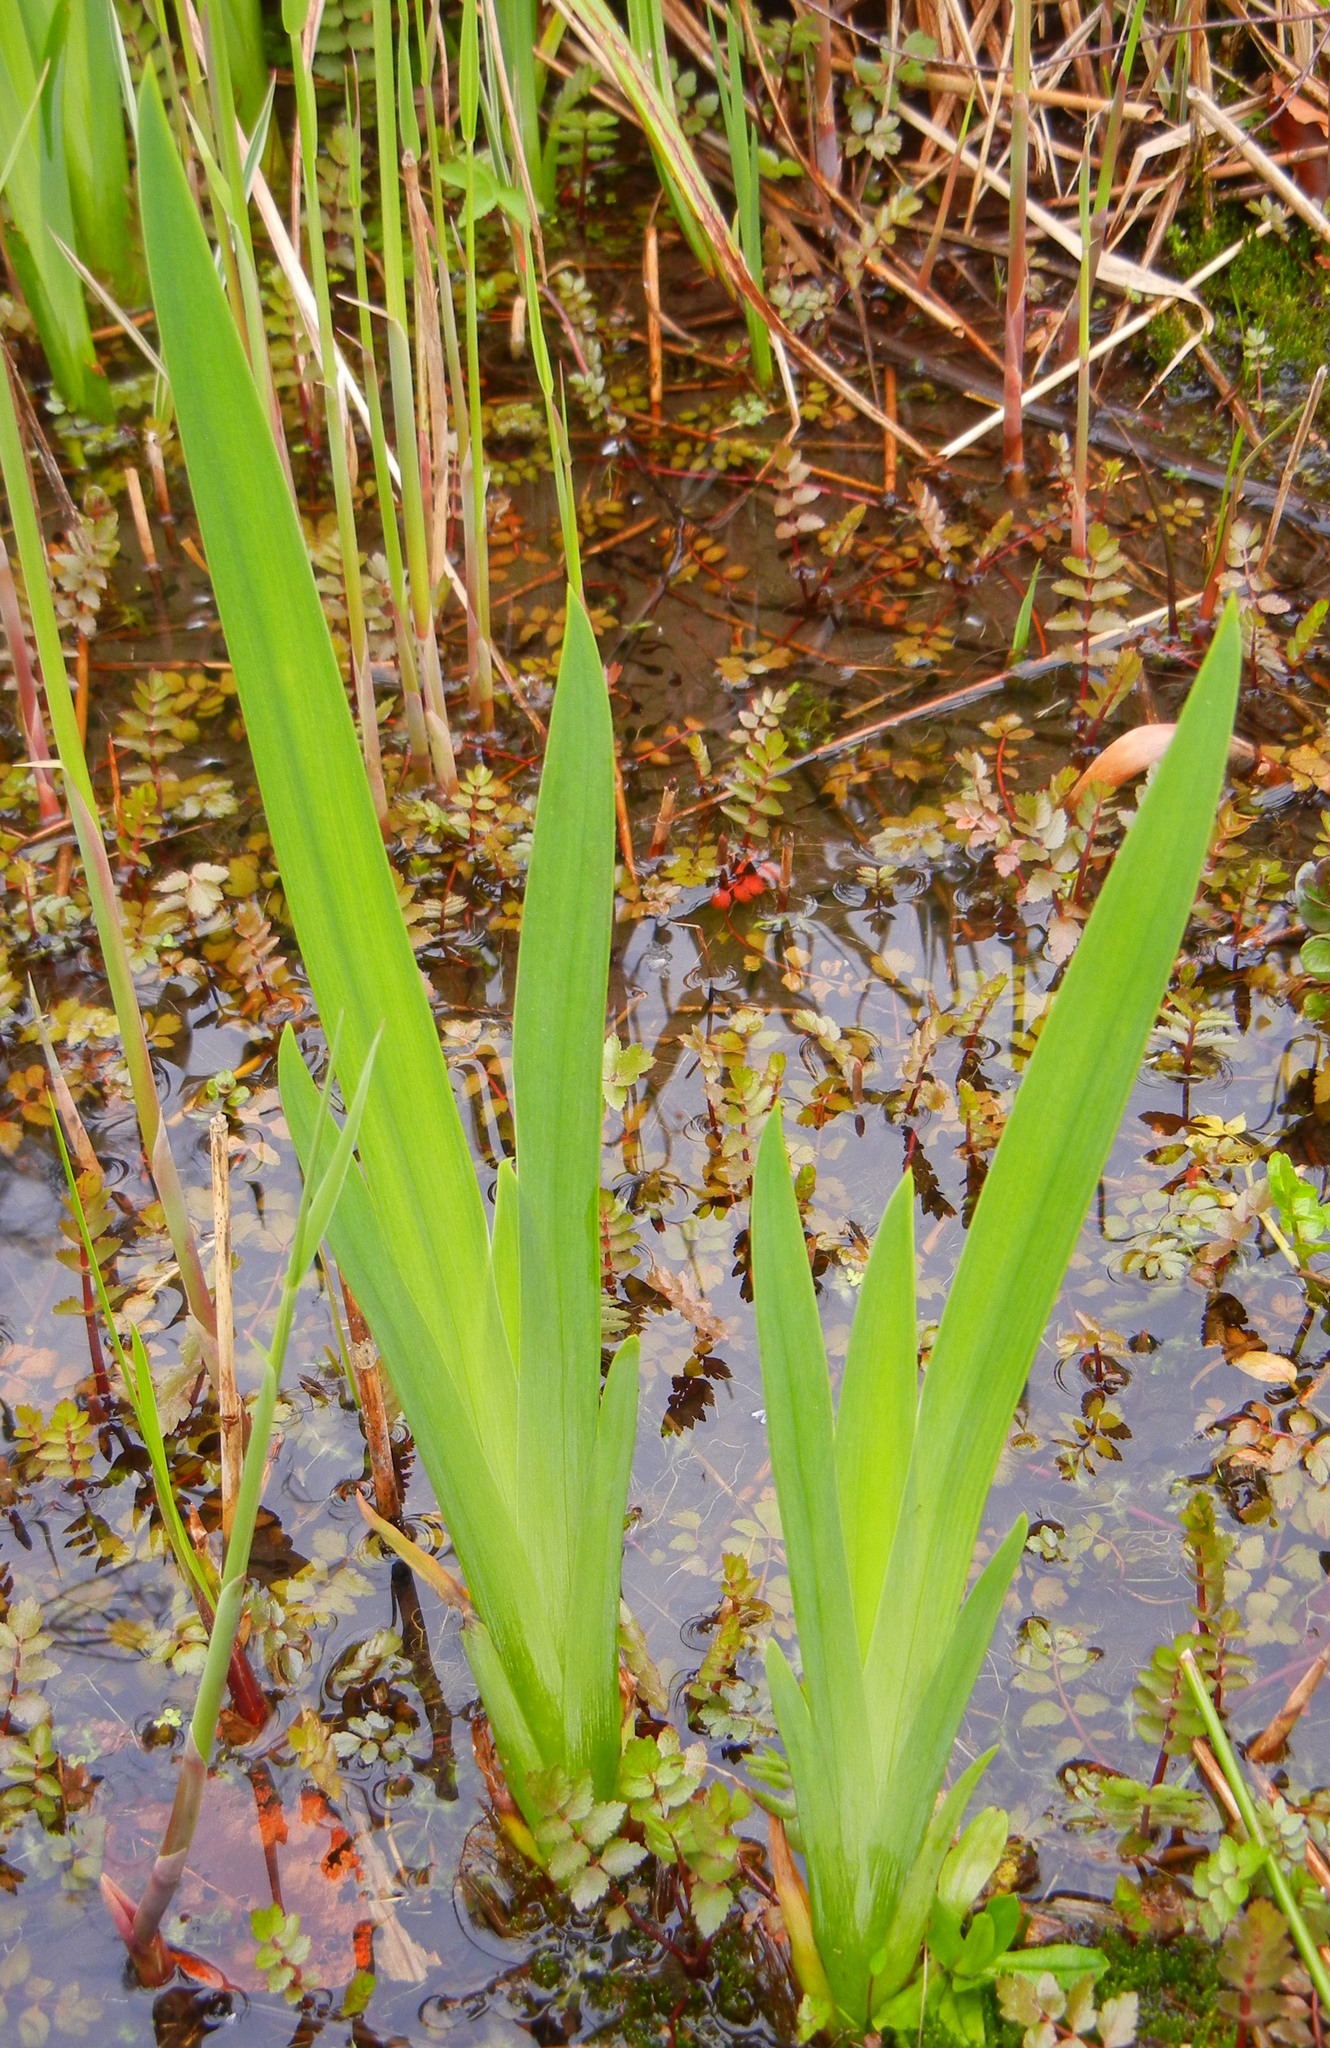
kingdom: Plantae
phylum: Tracheophyta
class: Liliopsida
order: Asparagales
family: Iridaceae
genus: Iris
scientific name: Iris pseudacorus
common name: Yellow flag
